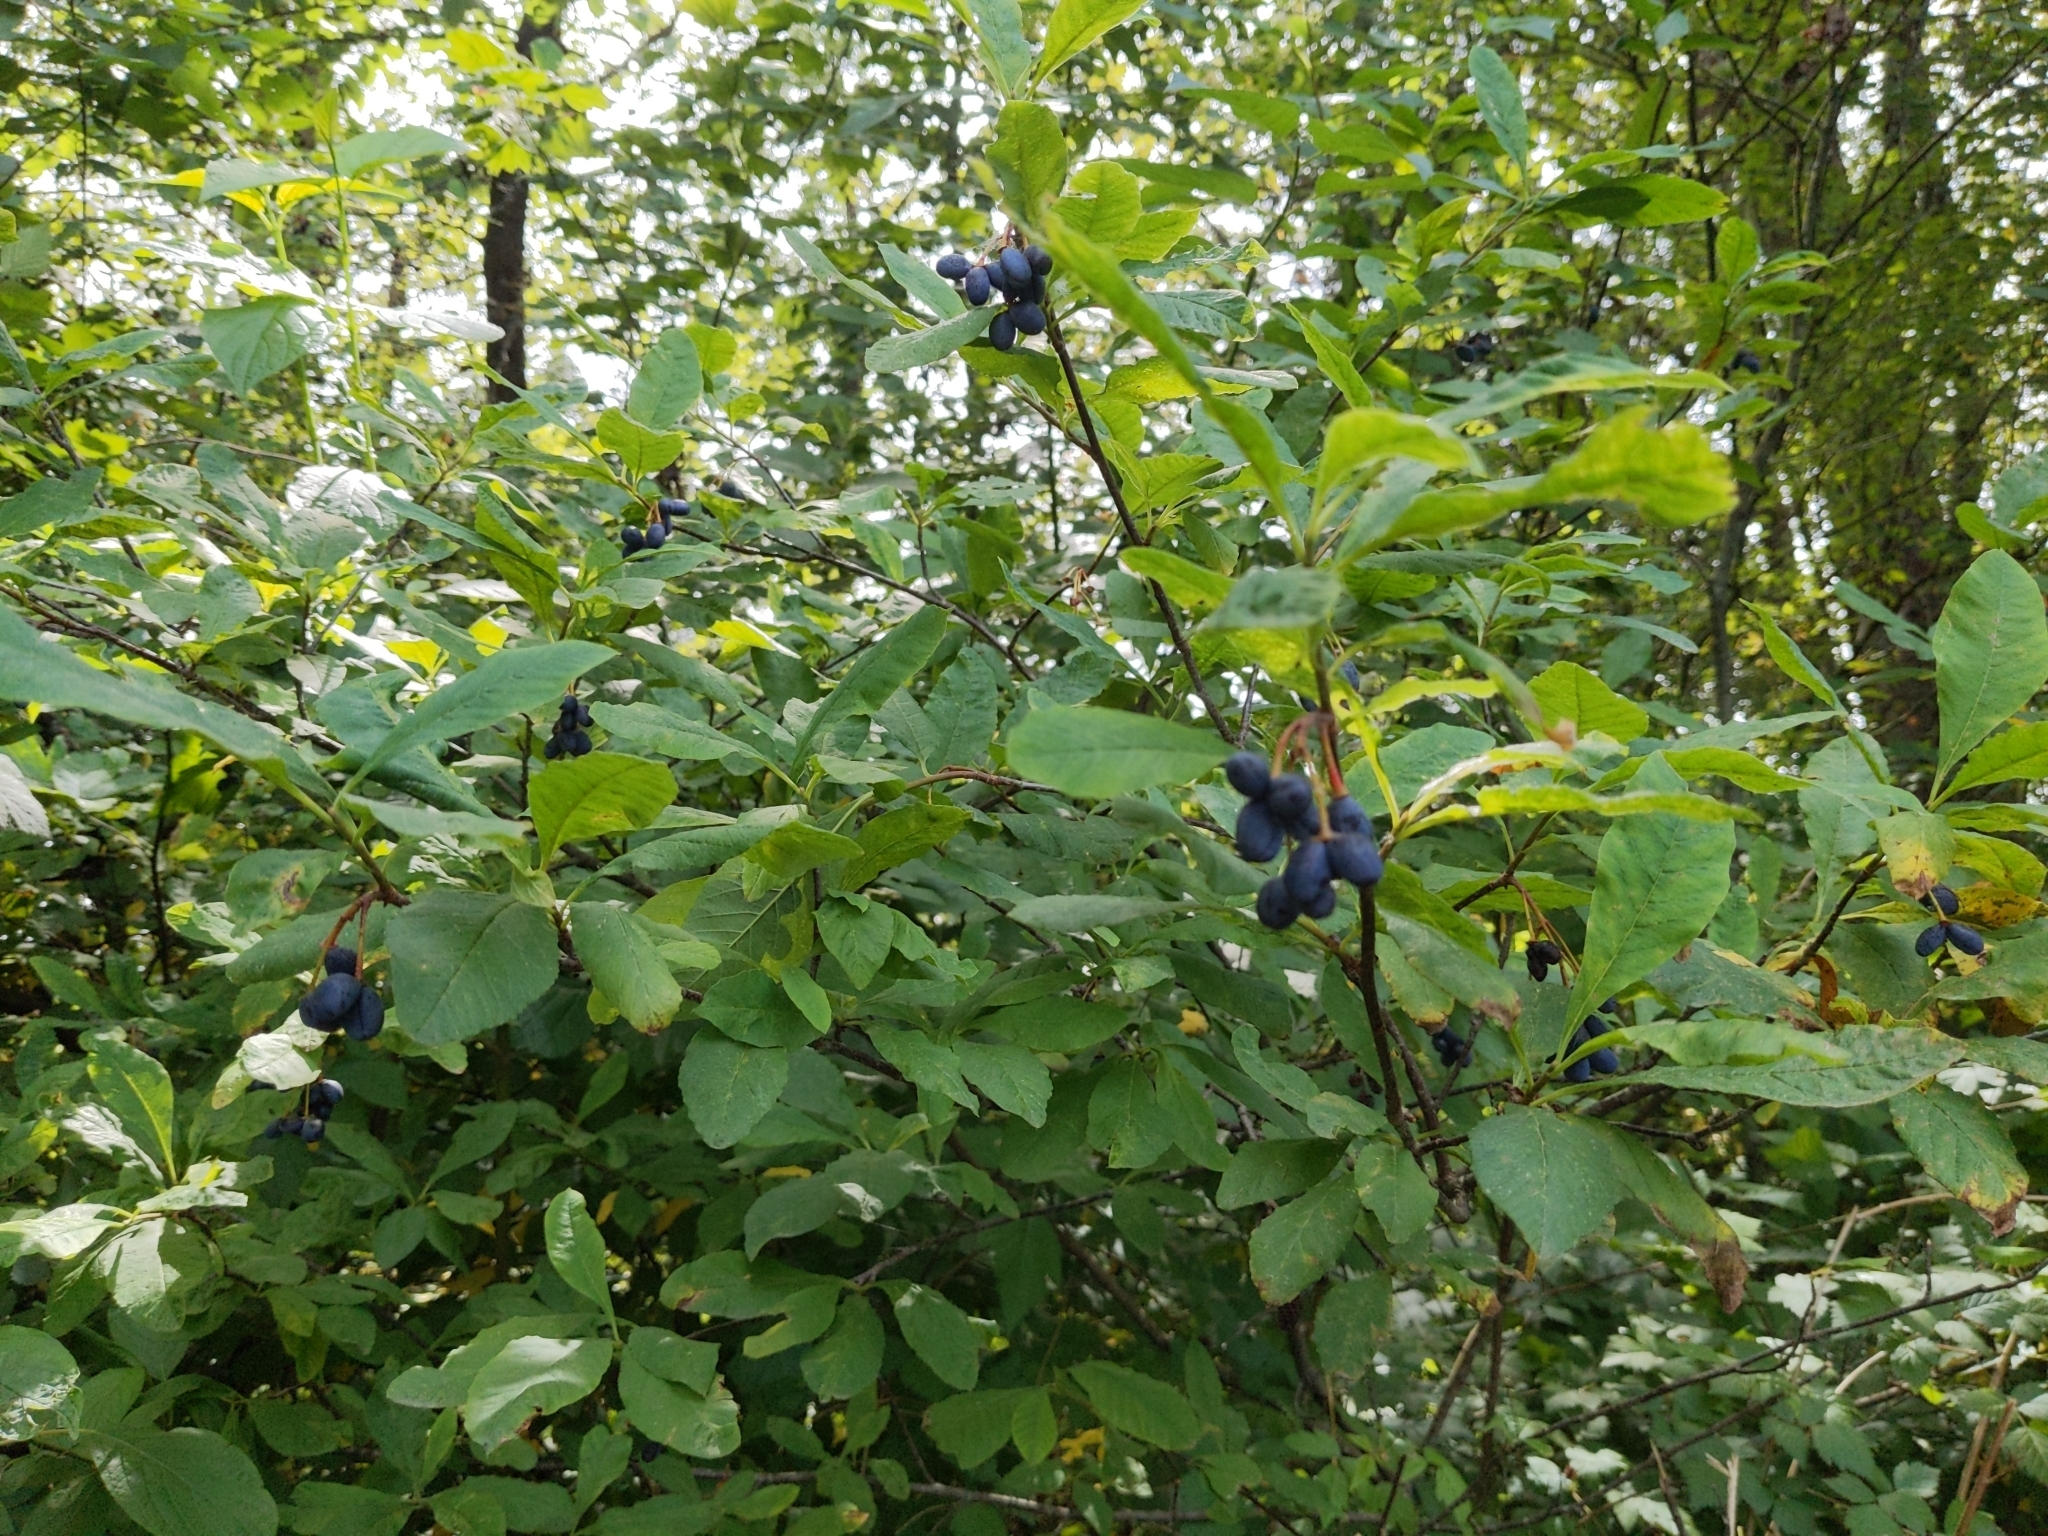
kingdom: Plantae
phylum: Tracheophyta
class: Magnoliopsida
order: Rosales
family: Rosaceae
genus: Oemleria
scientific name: Oemleria cerasiformis
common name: Osoberry
